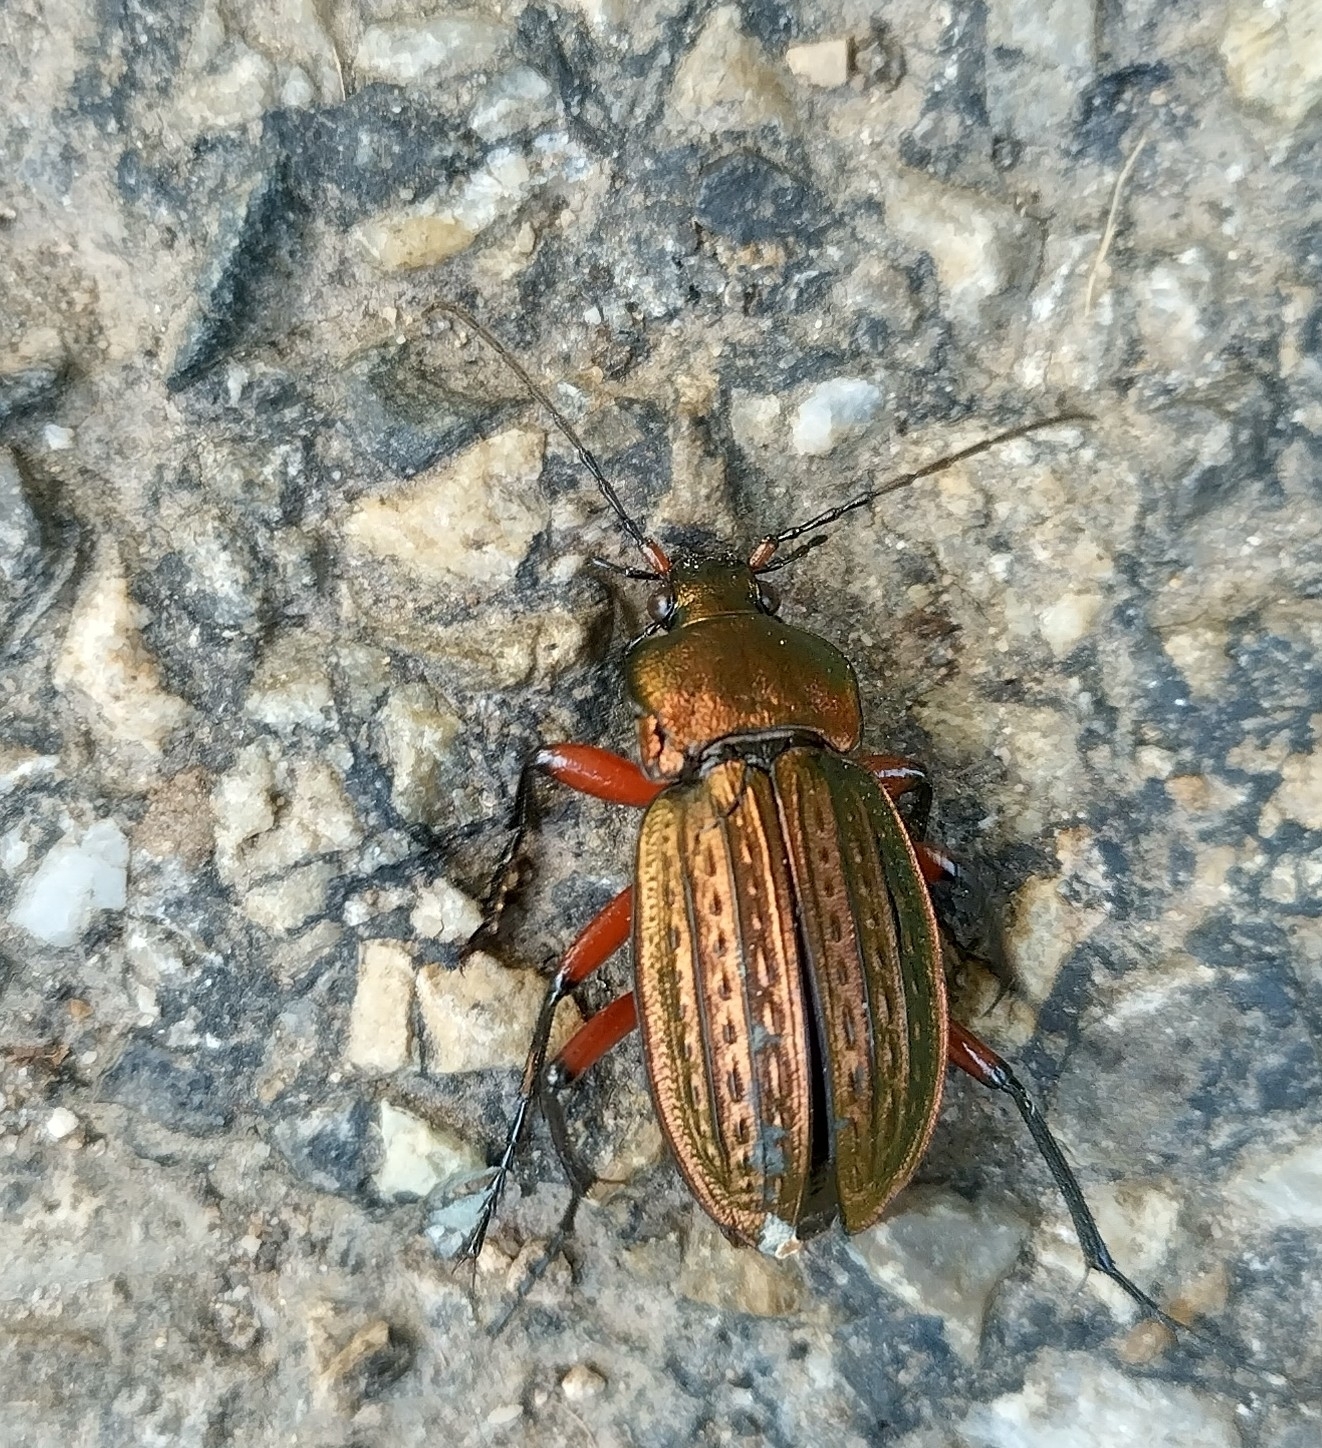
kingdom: Animalia
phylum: Arthropoda
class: Insecta
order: Coleoptera
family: Carabidae
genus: Carabus
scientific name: Carabus cancellatus
